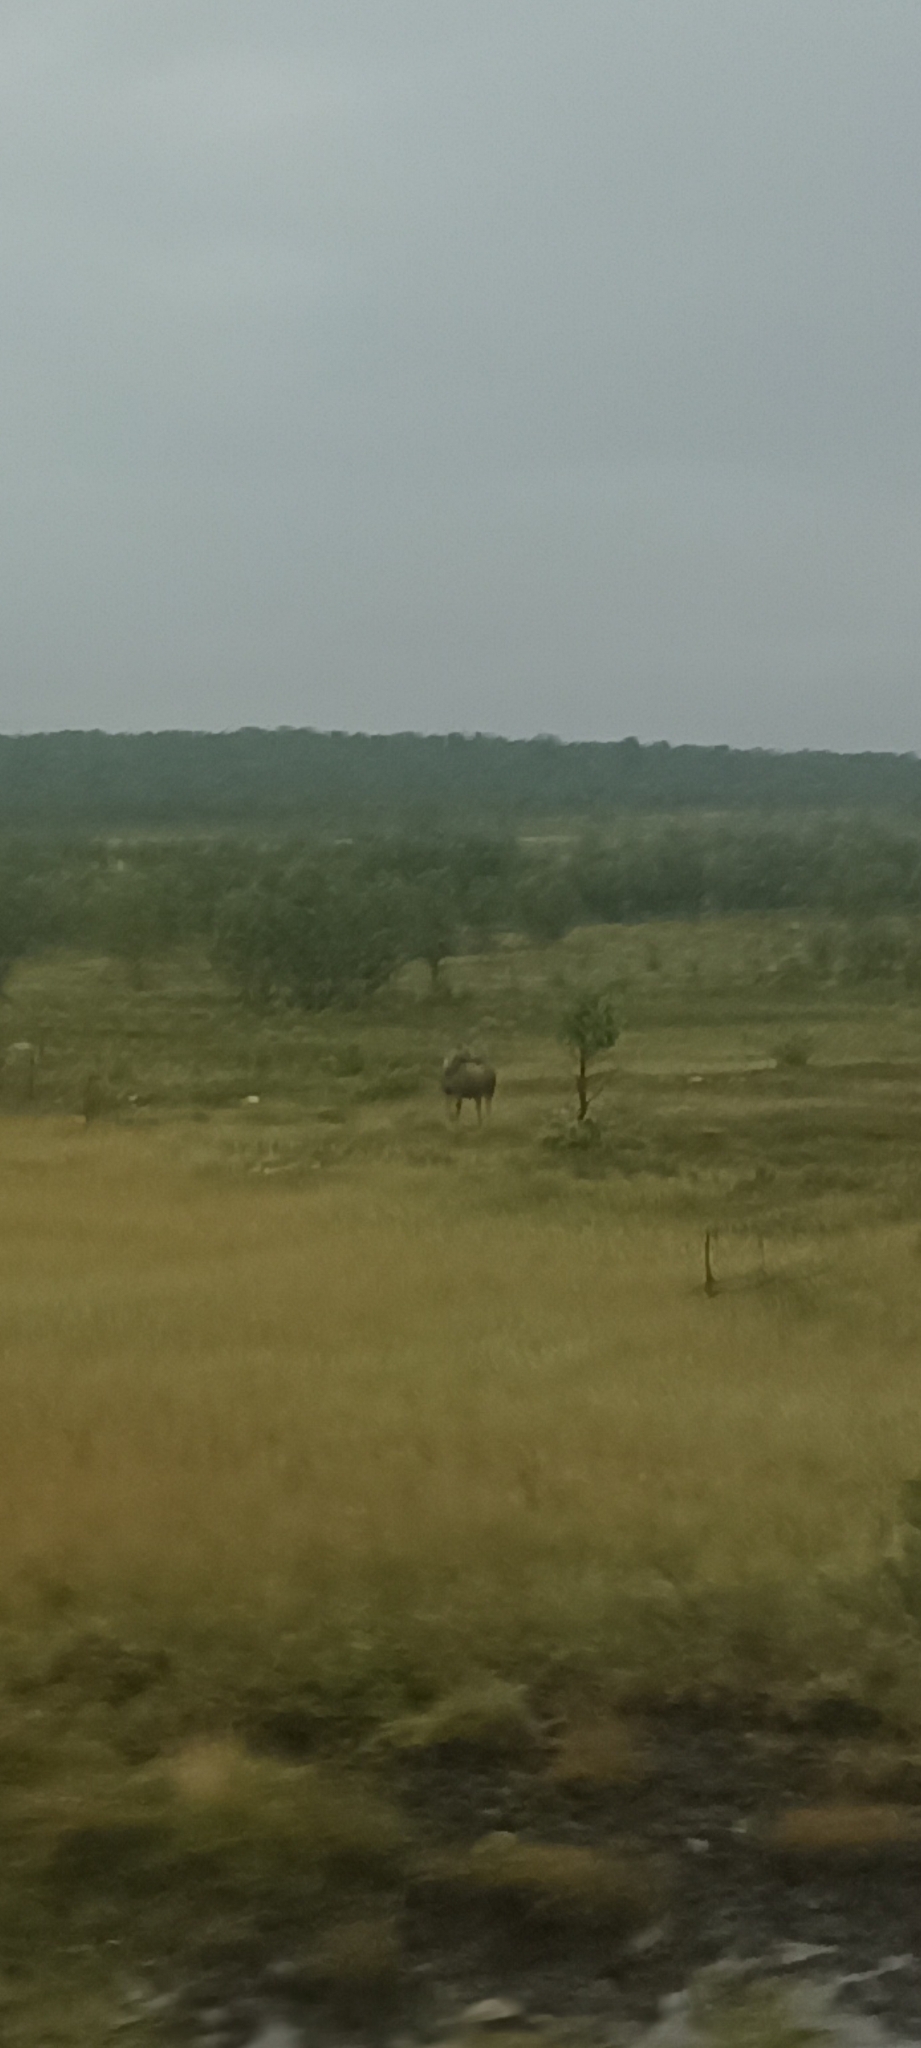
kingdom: Animalia
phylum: Chordata
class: Mammalia
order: Artiodactyla
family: Cervidae
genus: Alces
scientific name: Alces alces
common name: Moose
